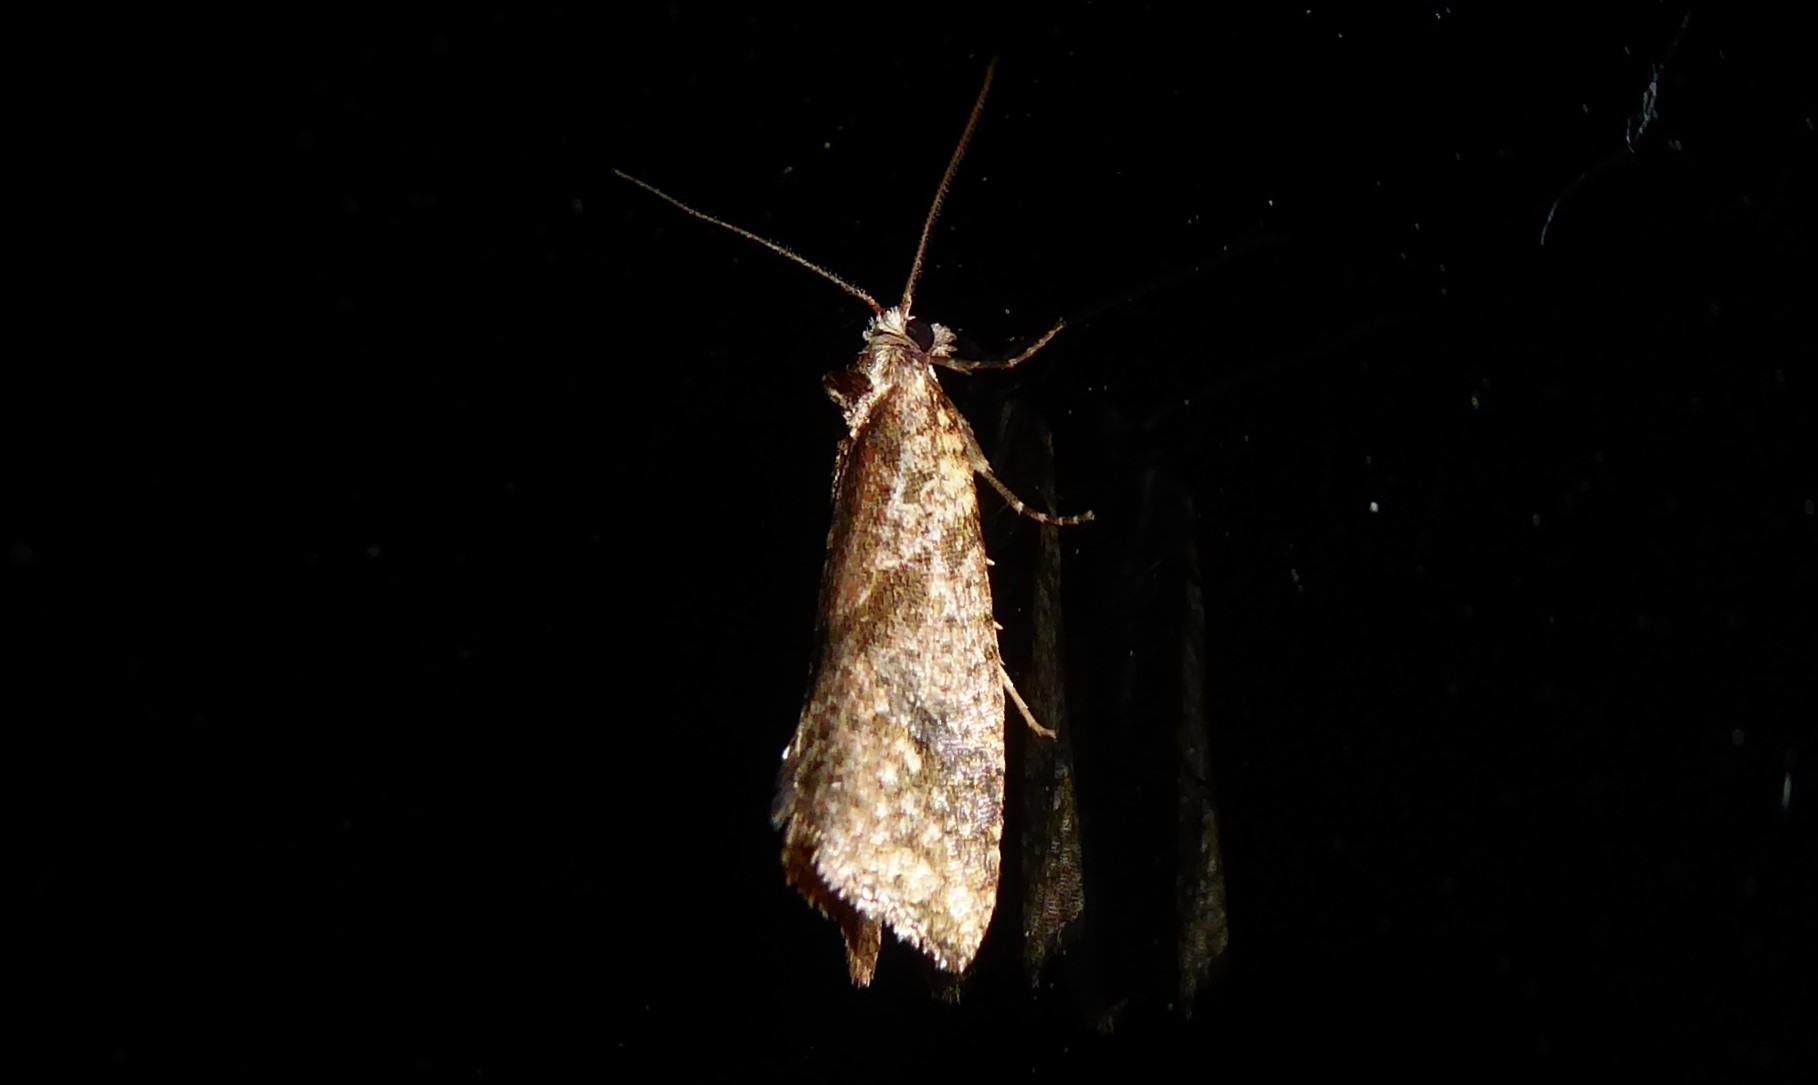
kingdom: Animalia
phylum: Arthropoda
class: Insecta
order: Lepidoptera
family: Tortricidae
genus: Pyrgotis
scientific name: Pyrgotis plagiatana
